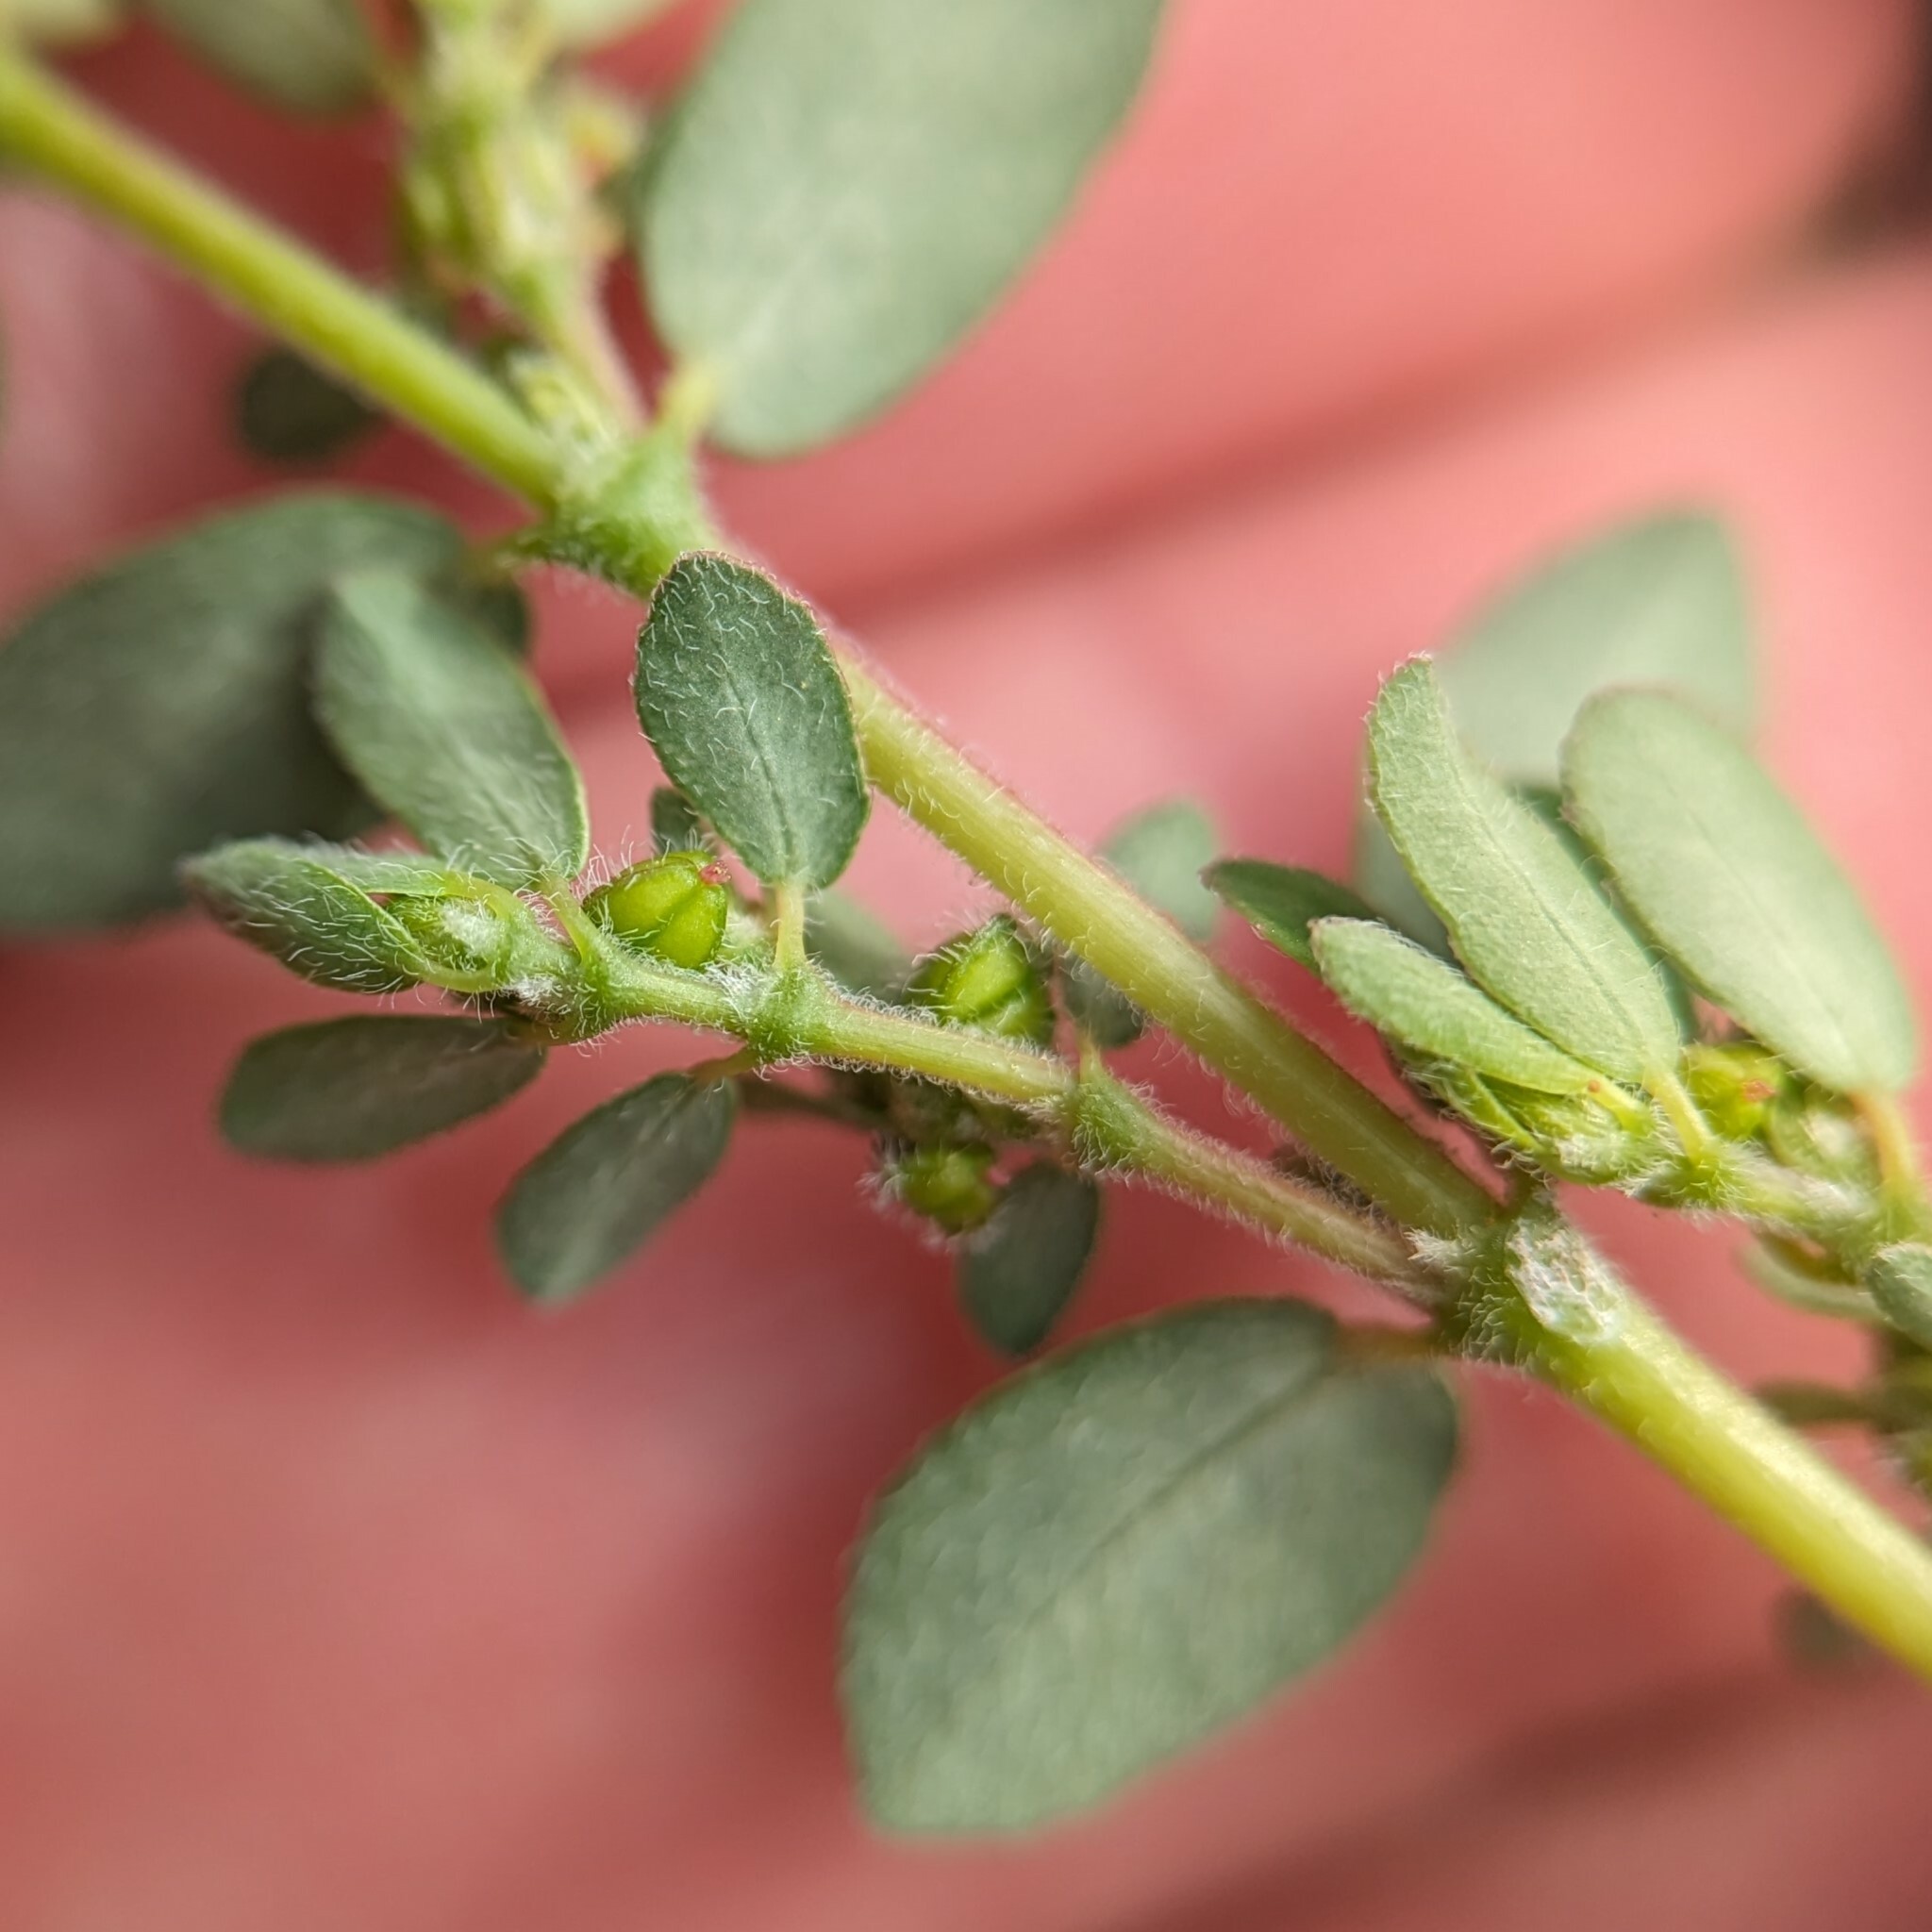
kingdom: Plantae
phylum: Tracheophyta
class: Magnoliopsida
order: Malpighiales
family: Euphorbiaceae
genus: Euphorbia
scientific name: Euphorbia prostrata
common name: Prostrate sandmat
